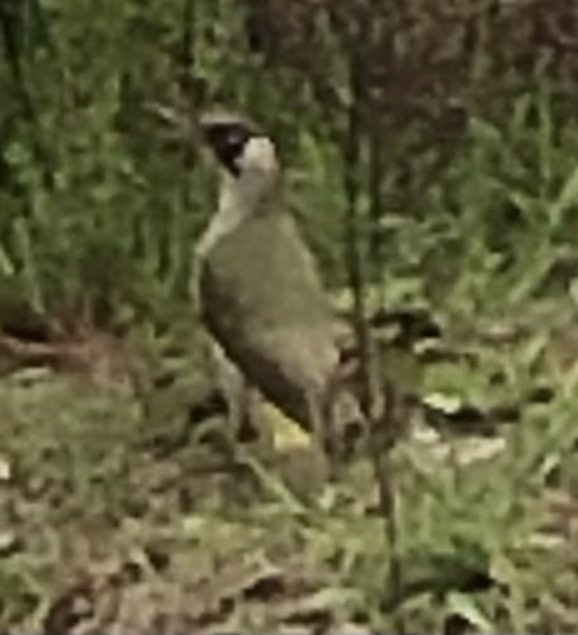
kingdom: Animalia
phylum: Chordata
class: Aves
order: Piciformes
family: Picidae
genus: Picus
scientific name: Picus viridis
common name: European green woodpecker
